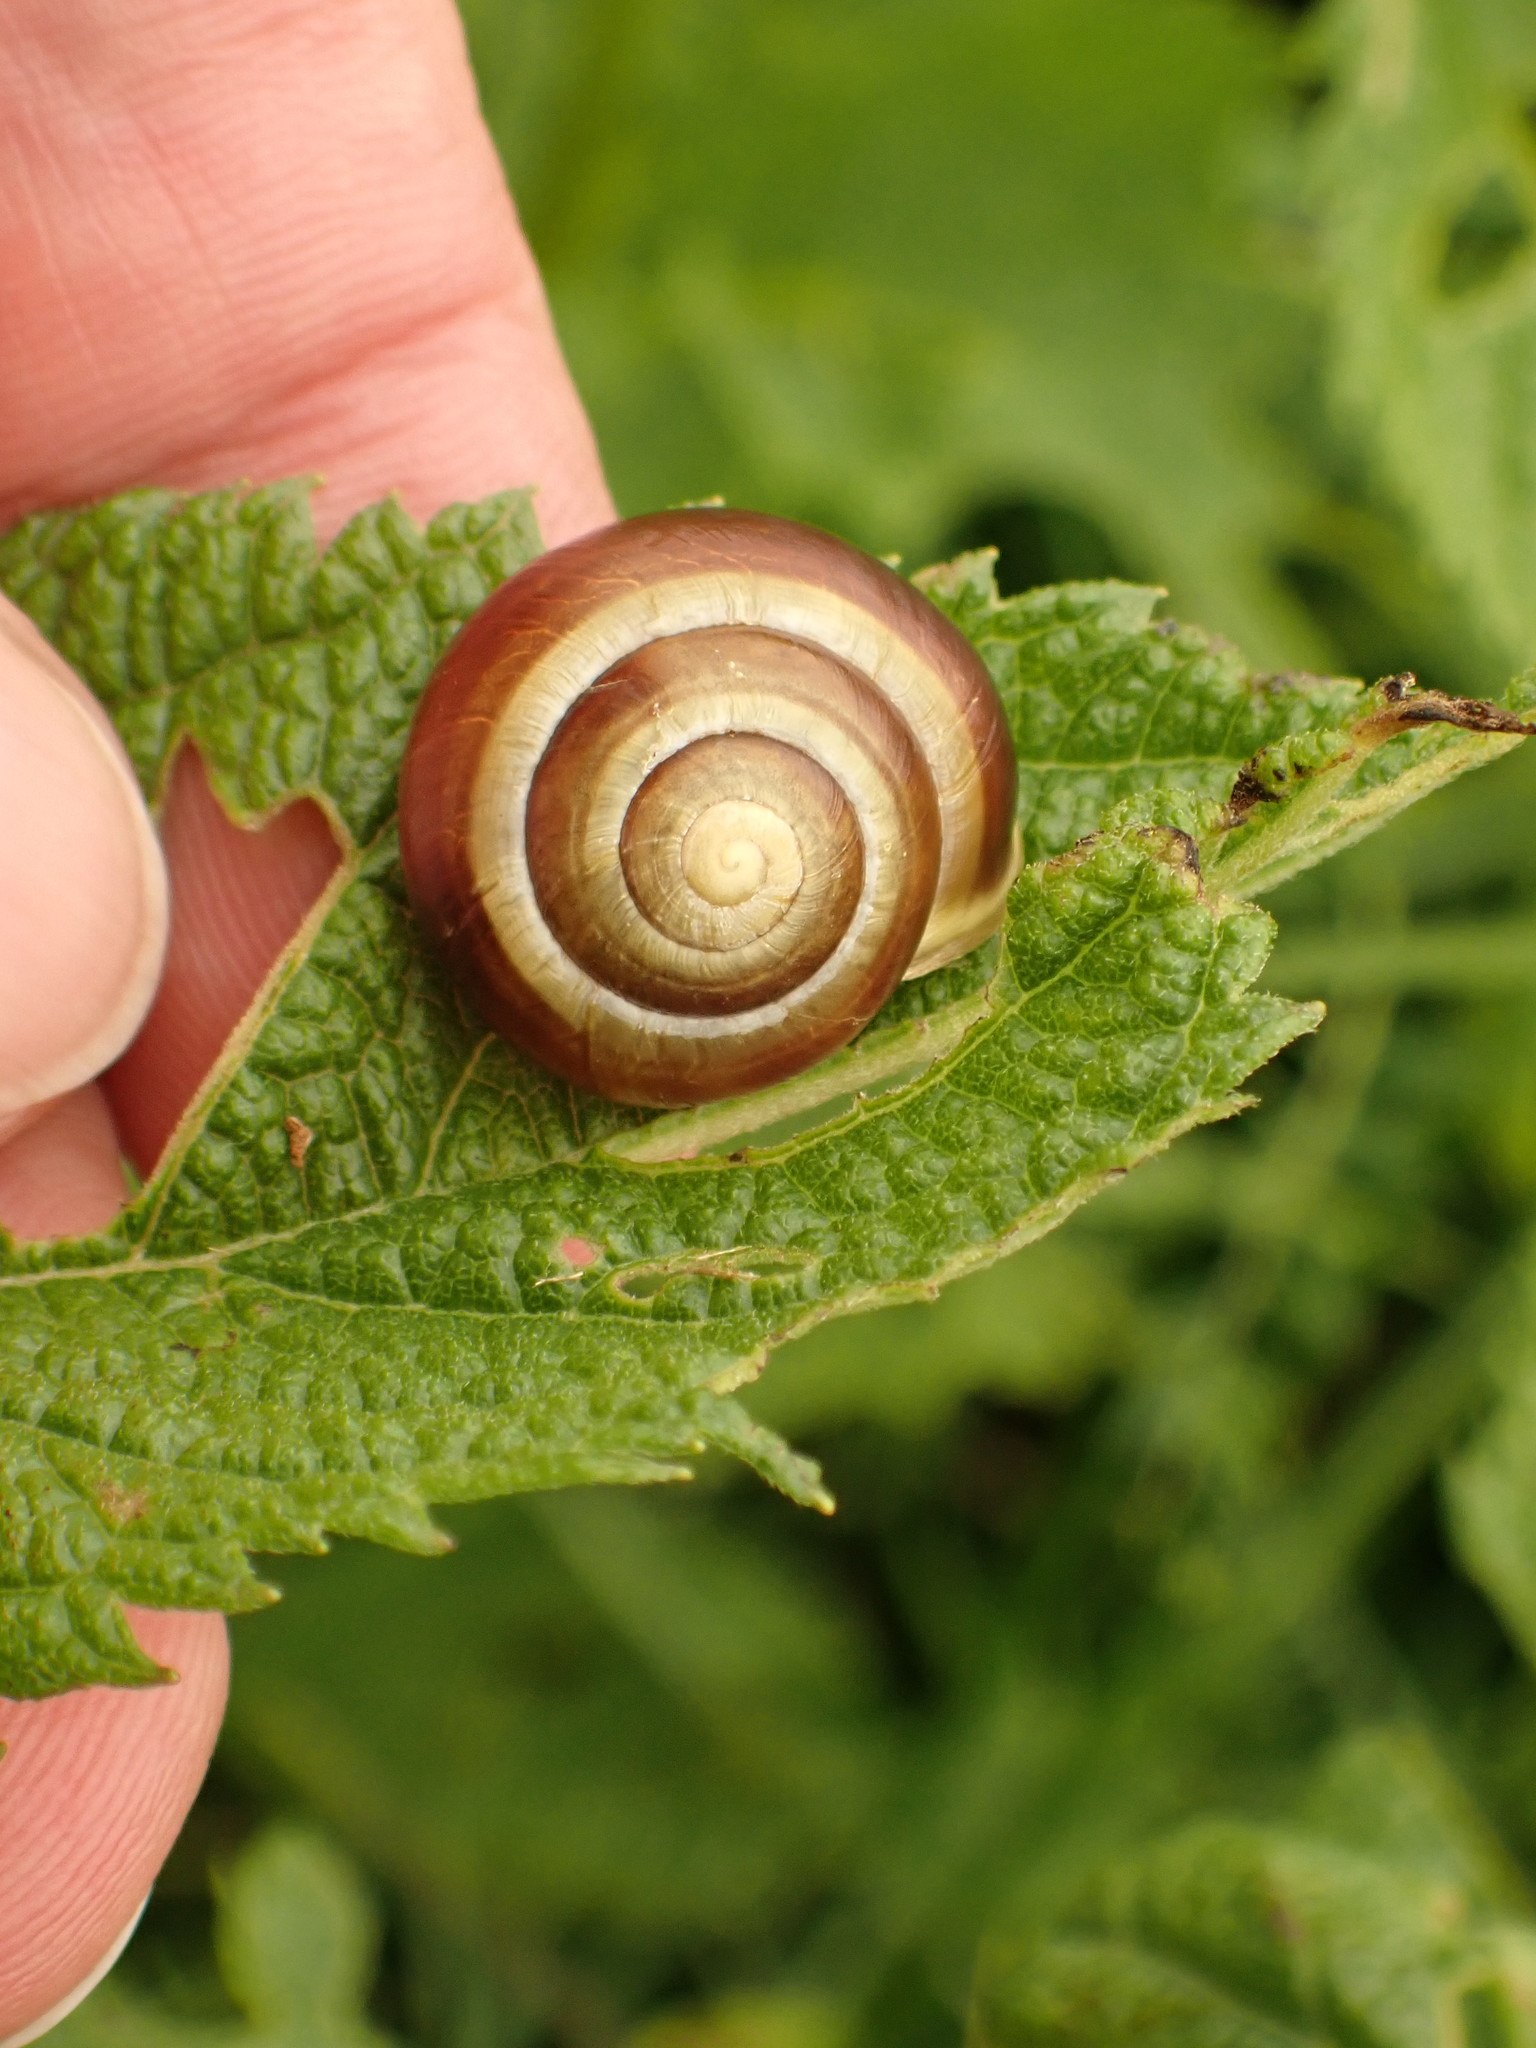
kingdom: Animalia
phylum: Mollusca
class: Gastropoda
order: Stylommatophora
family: Helicidae
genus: Cepaea
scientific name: Cepaea hortensis
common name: White-lip gardensnail
